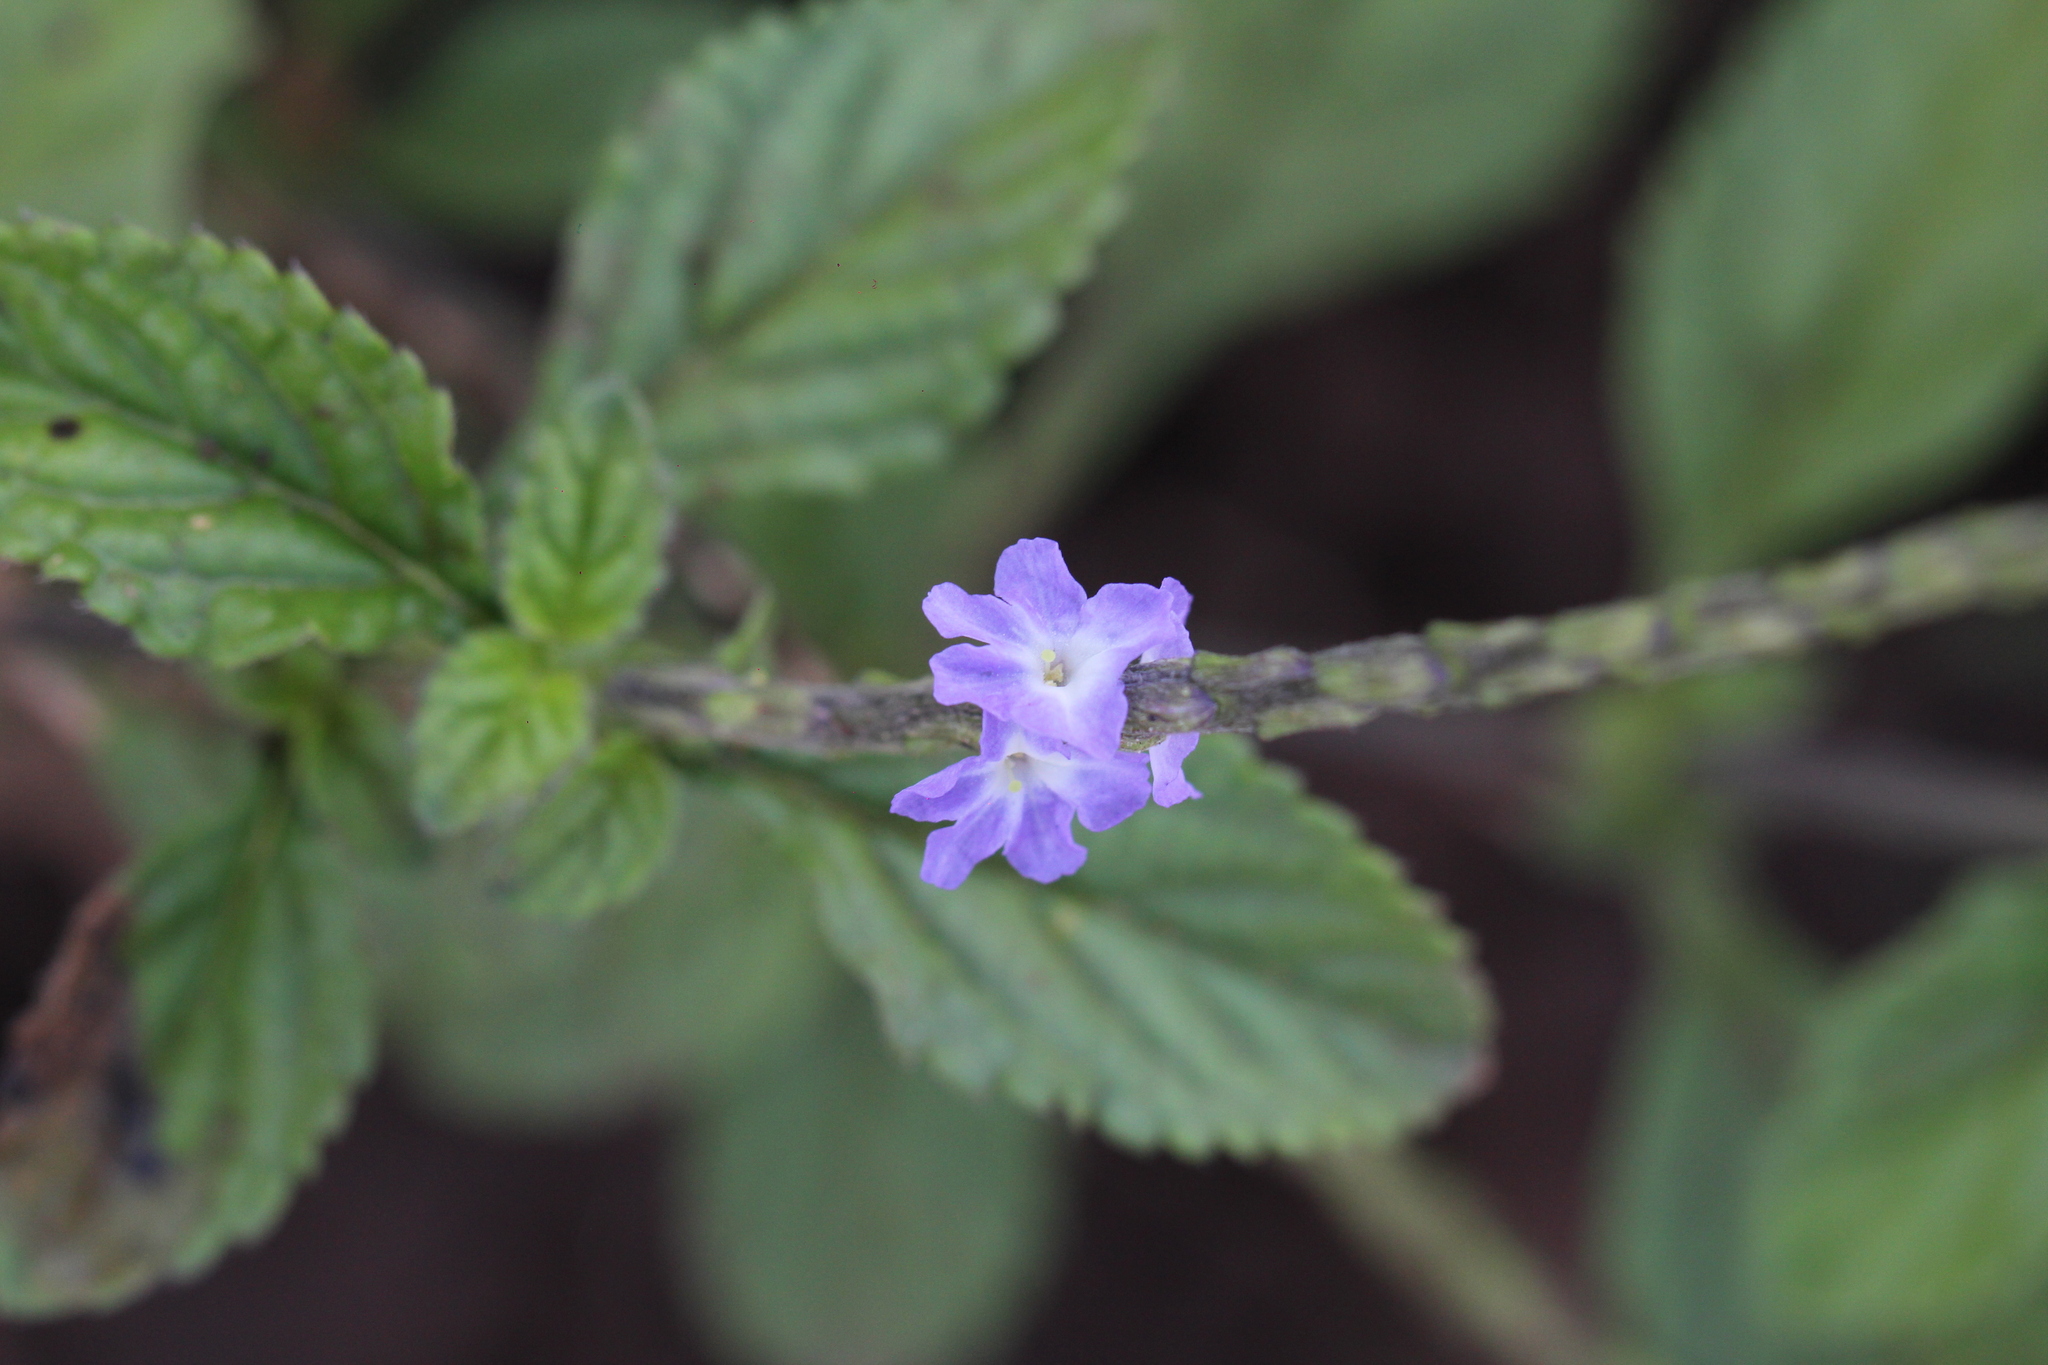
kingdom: Plantae
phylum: Tracheophyta
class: Magnoliopsida
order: Lamiales
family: Verbenaceae
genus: Stachytarpheta
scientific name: Stachytarpheta cayennensis
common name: Cayenne porterweed
